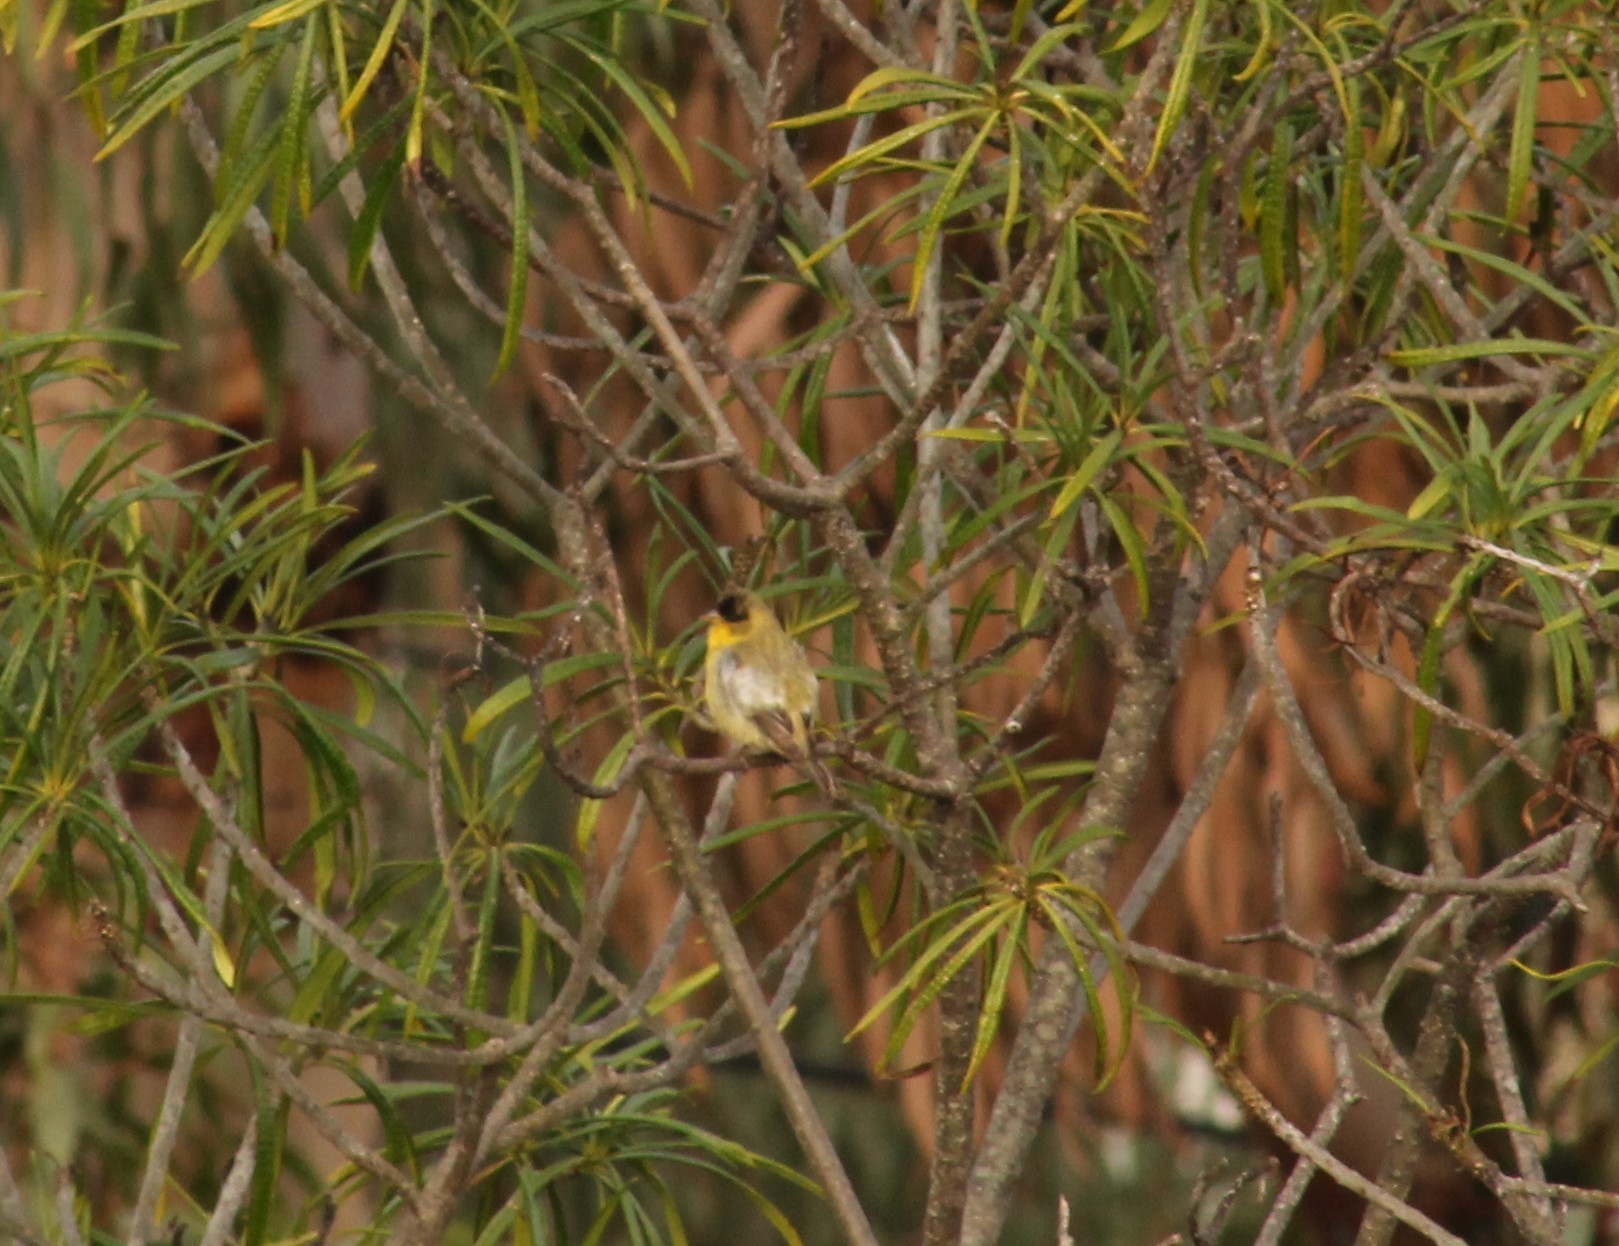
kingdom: Animalia
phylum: Chordata
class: Aves
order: Passeriformes
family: Parulidae
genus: Geothlypis
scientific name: Geothlypis trichas
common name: Common yellowthroat
